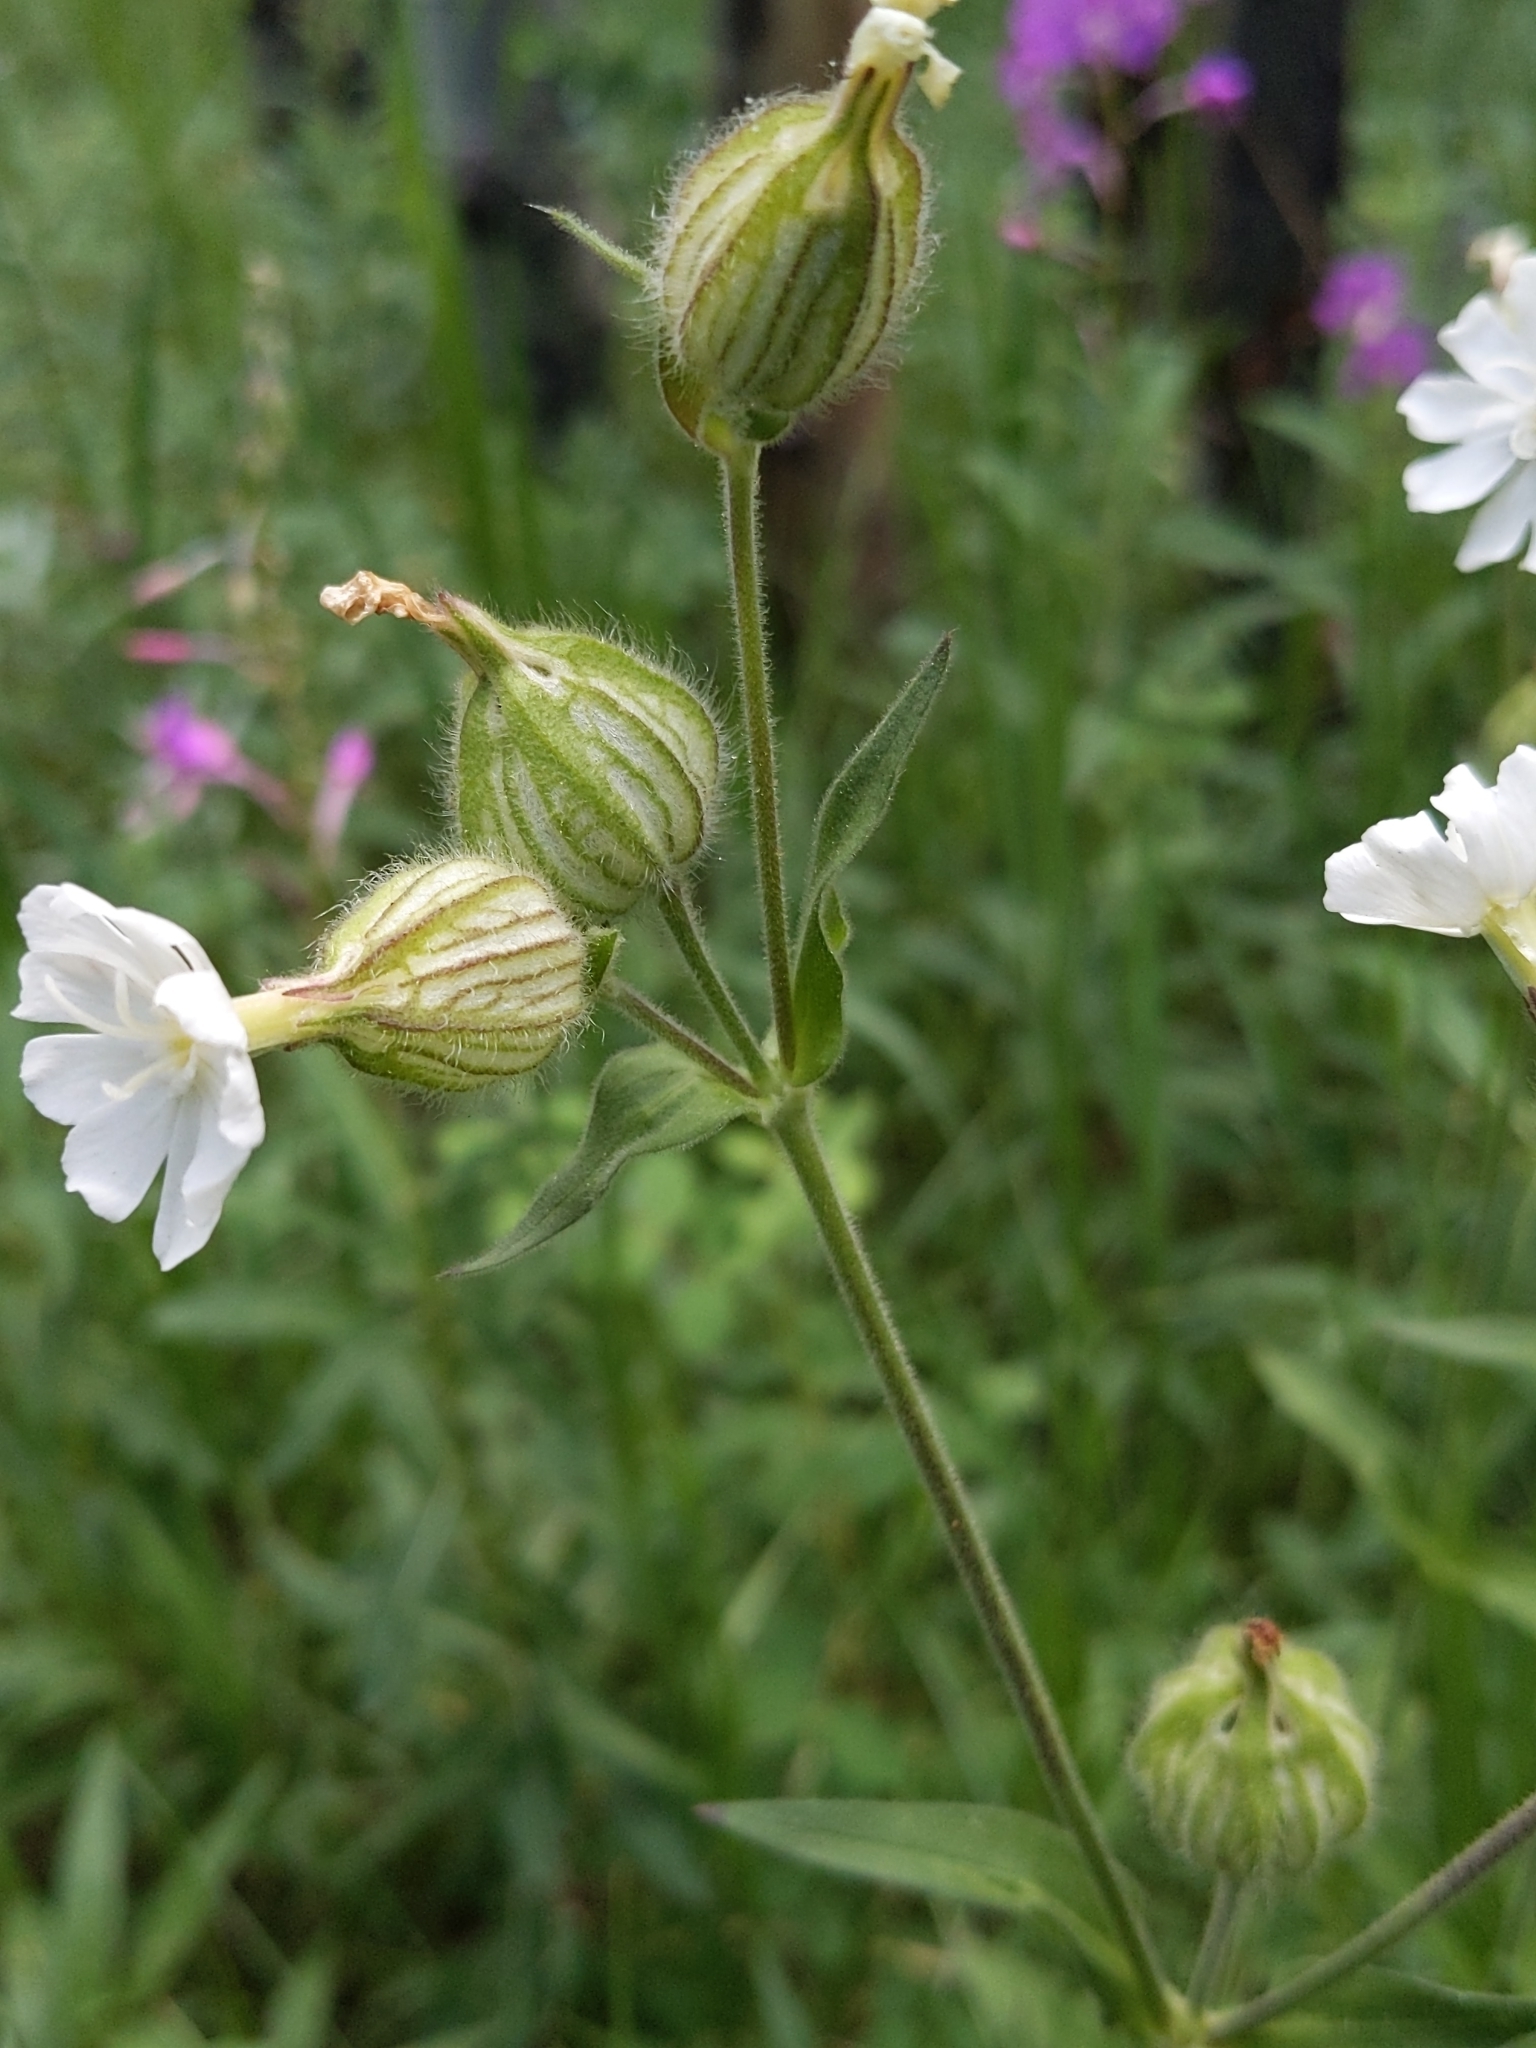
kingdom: Plantae
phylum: Tracheophyta
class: Magnoliopsida
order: Caryophyllales
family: Caryophyllaceae
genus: Silene
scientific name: Silene latifolia
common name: White campion
